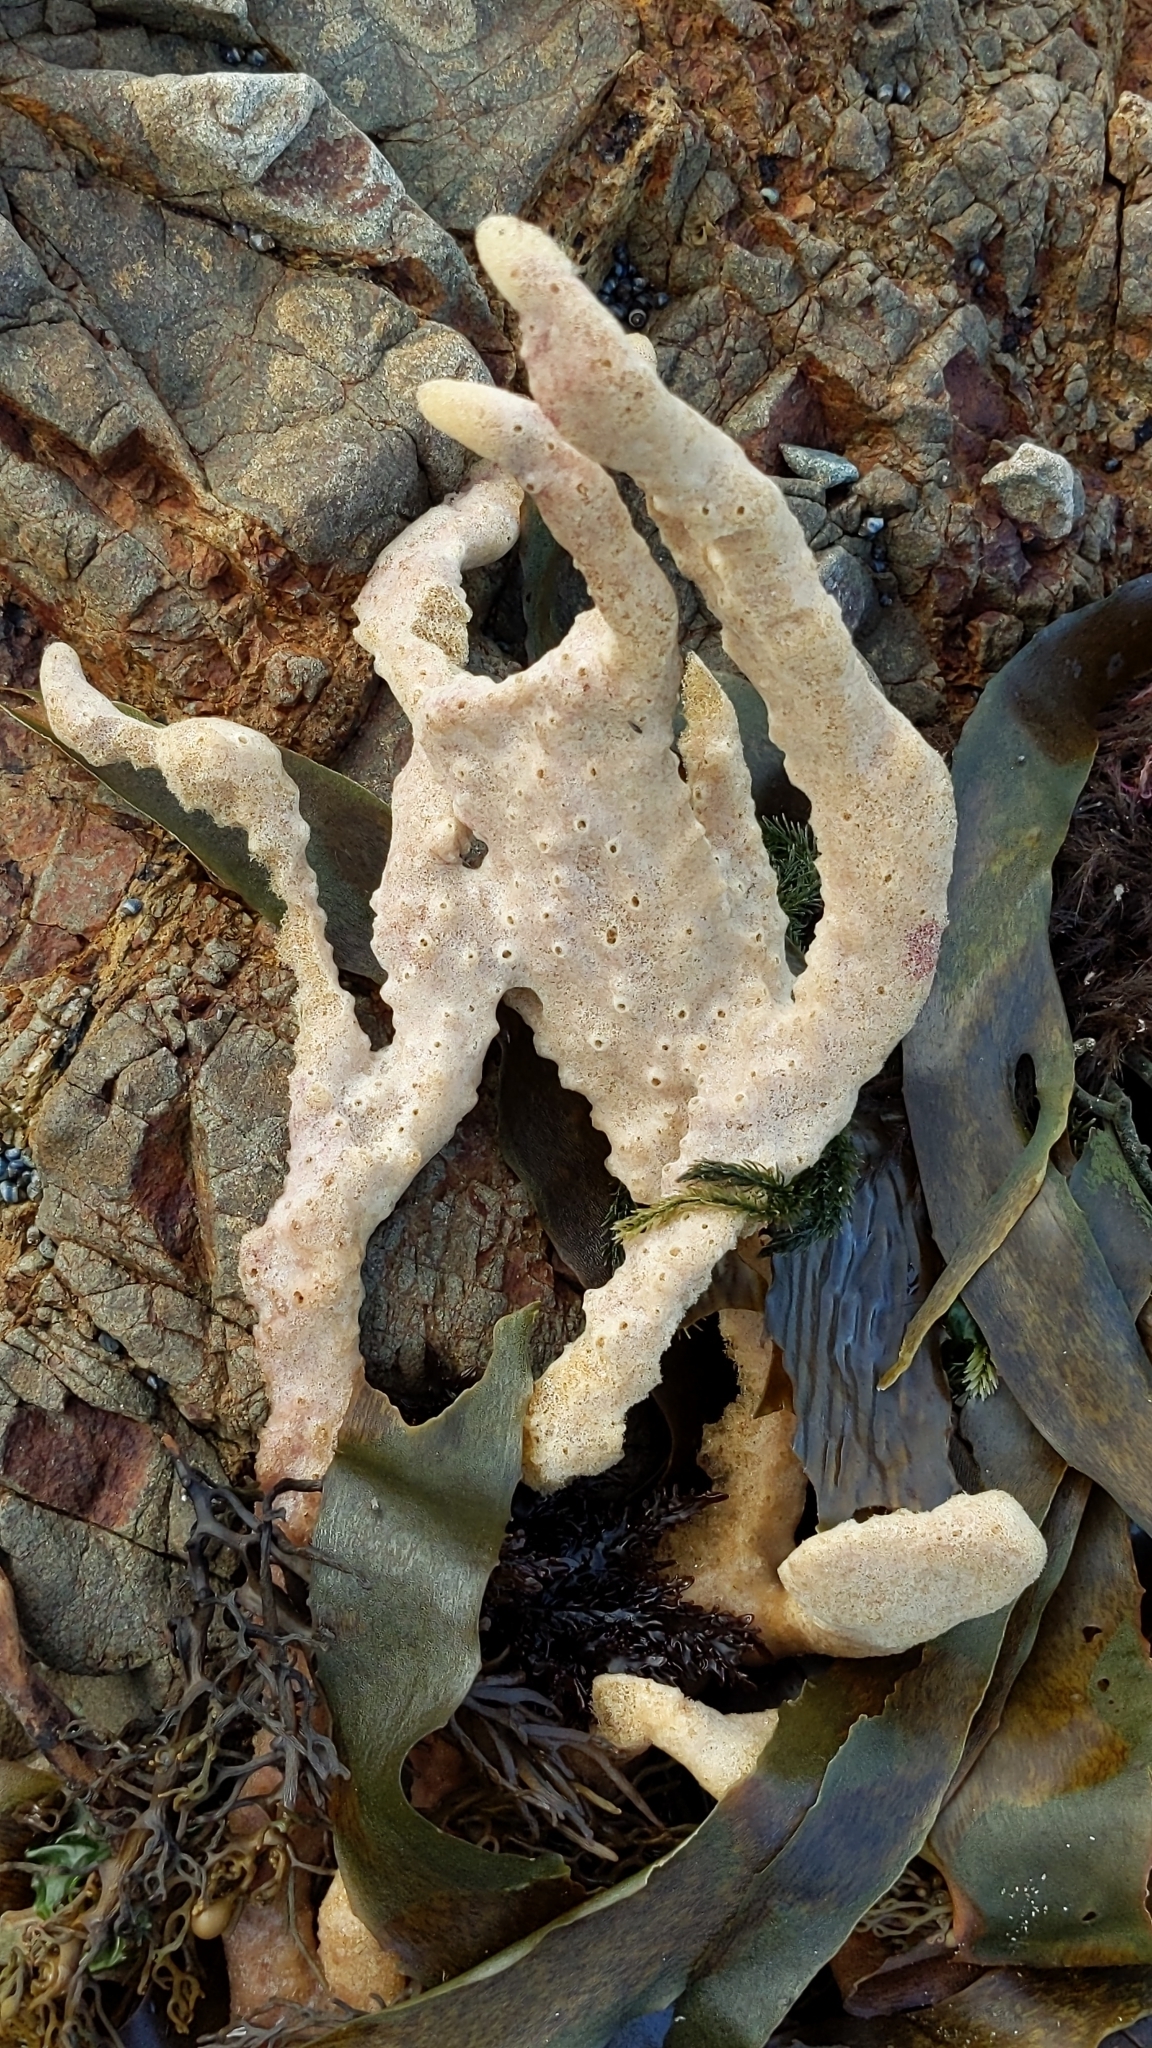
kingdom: Animalia
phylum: Porifera
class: Demospongiae
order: Haplosclerida
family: Callyspongiidae
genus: Dactylia
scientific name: Dactylia varia
